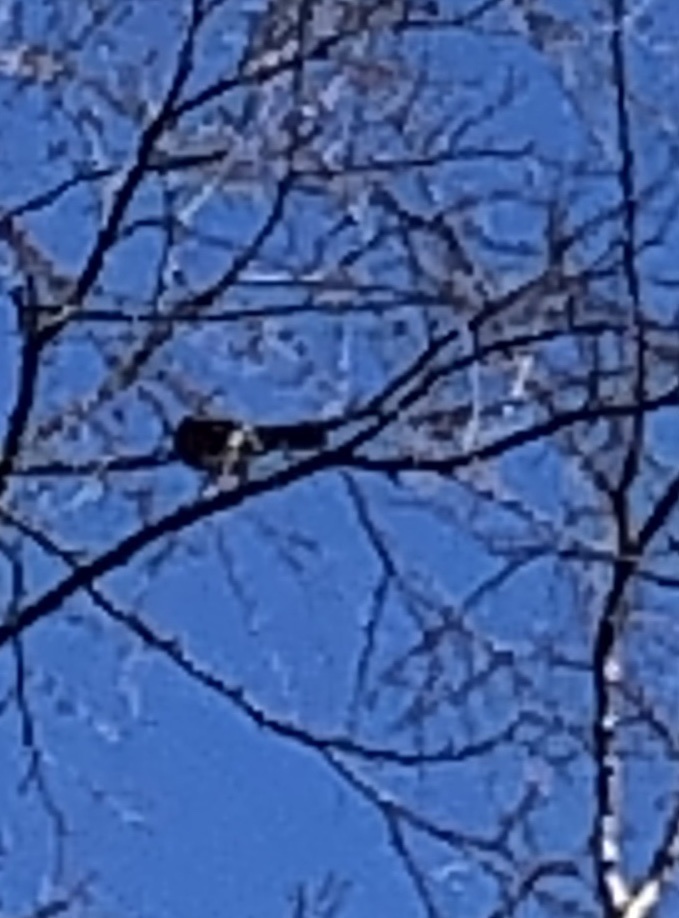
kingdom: Animalia
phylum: Chordata
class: Aves
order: Passeriformes
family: Turdidae
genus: Turdus
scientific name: Turdus migratorius
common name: American robin
